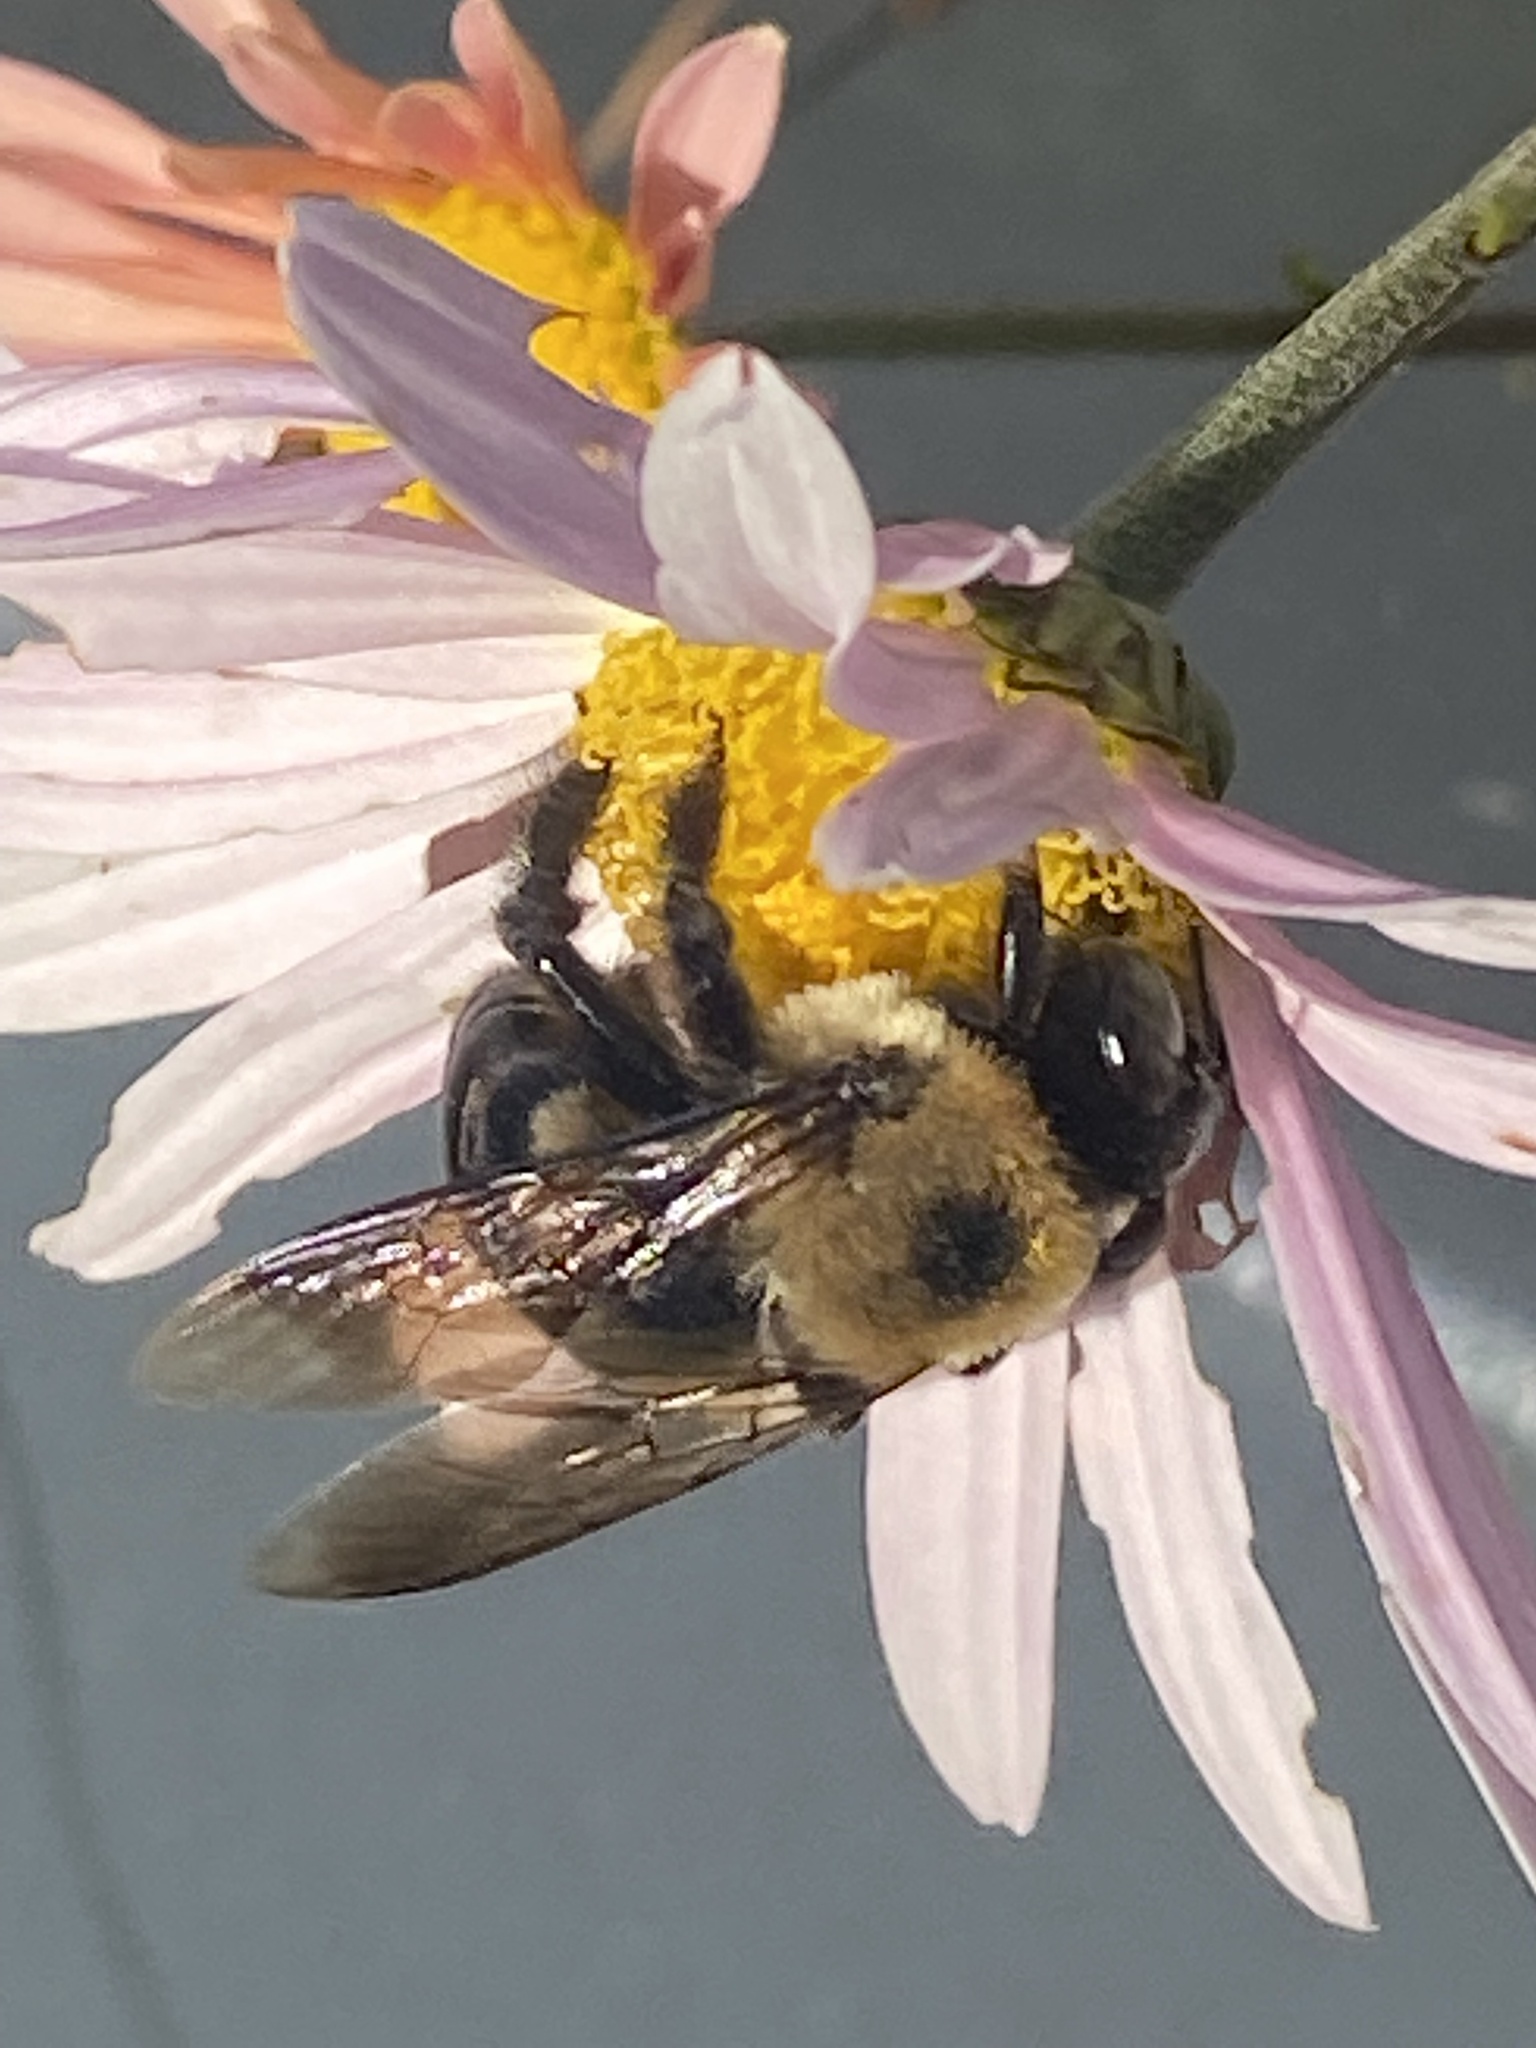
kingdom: Animalia
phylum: Arthropoda
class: Insecta
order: Hymenoptera
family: Apidae
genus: Xylocopa
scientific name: Xylocopa virginica
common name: Carpenter bee
